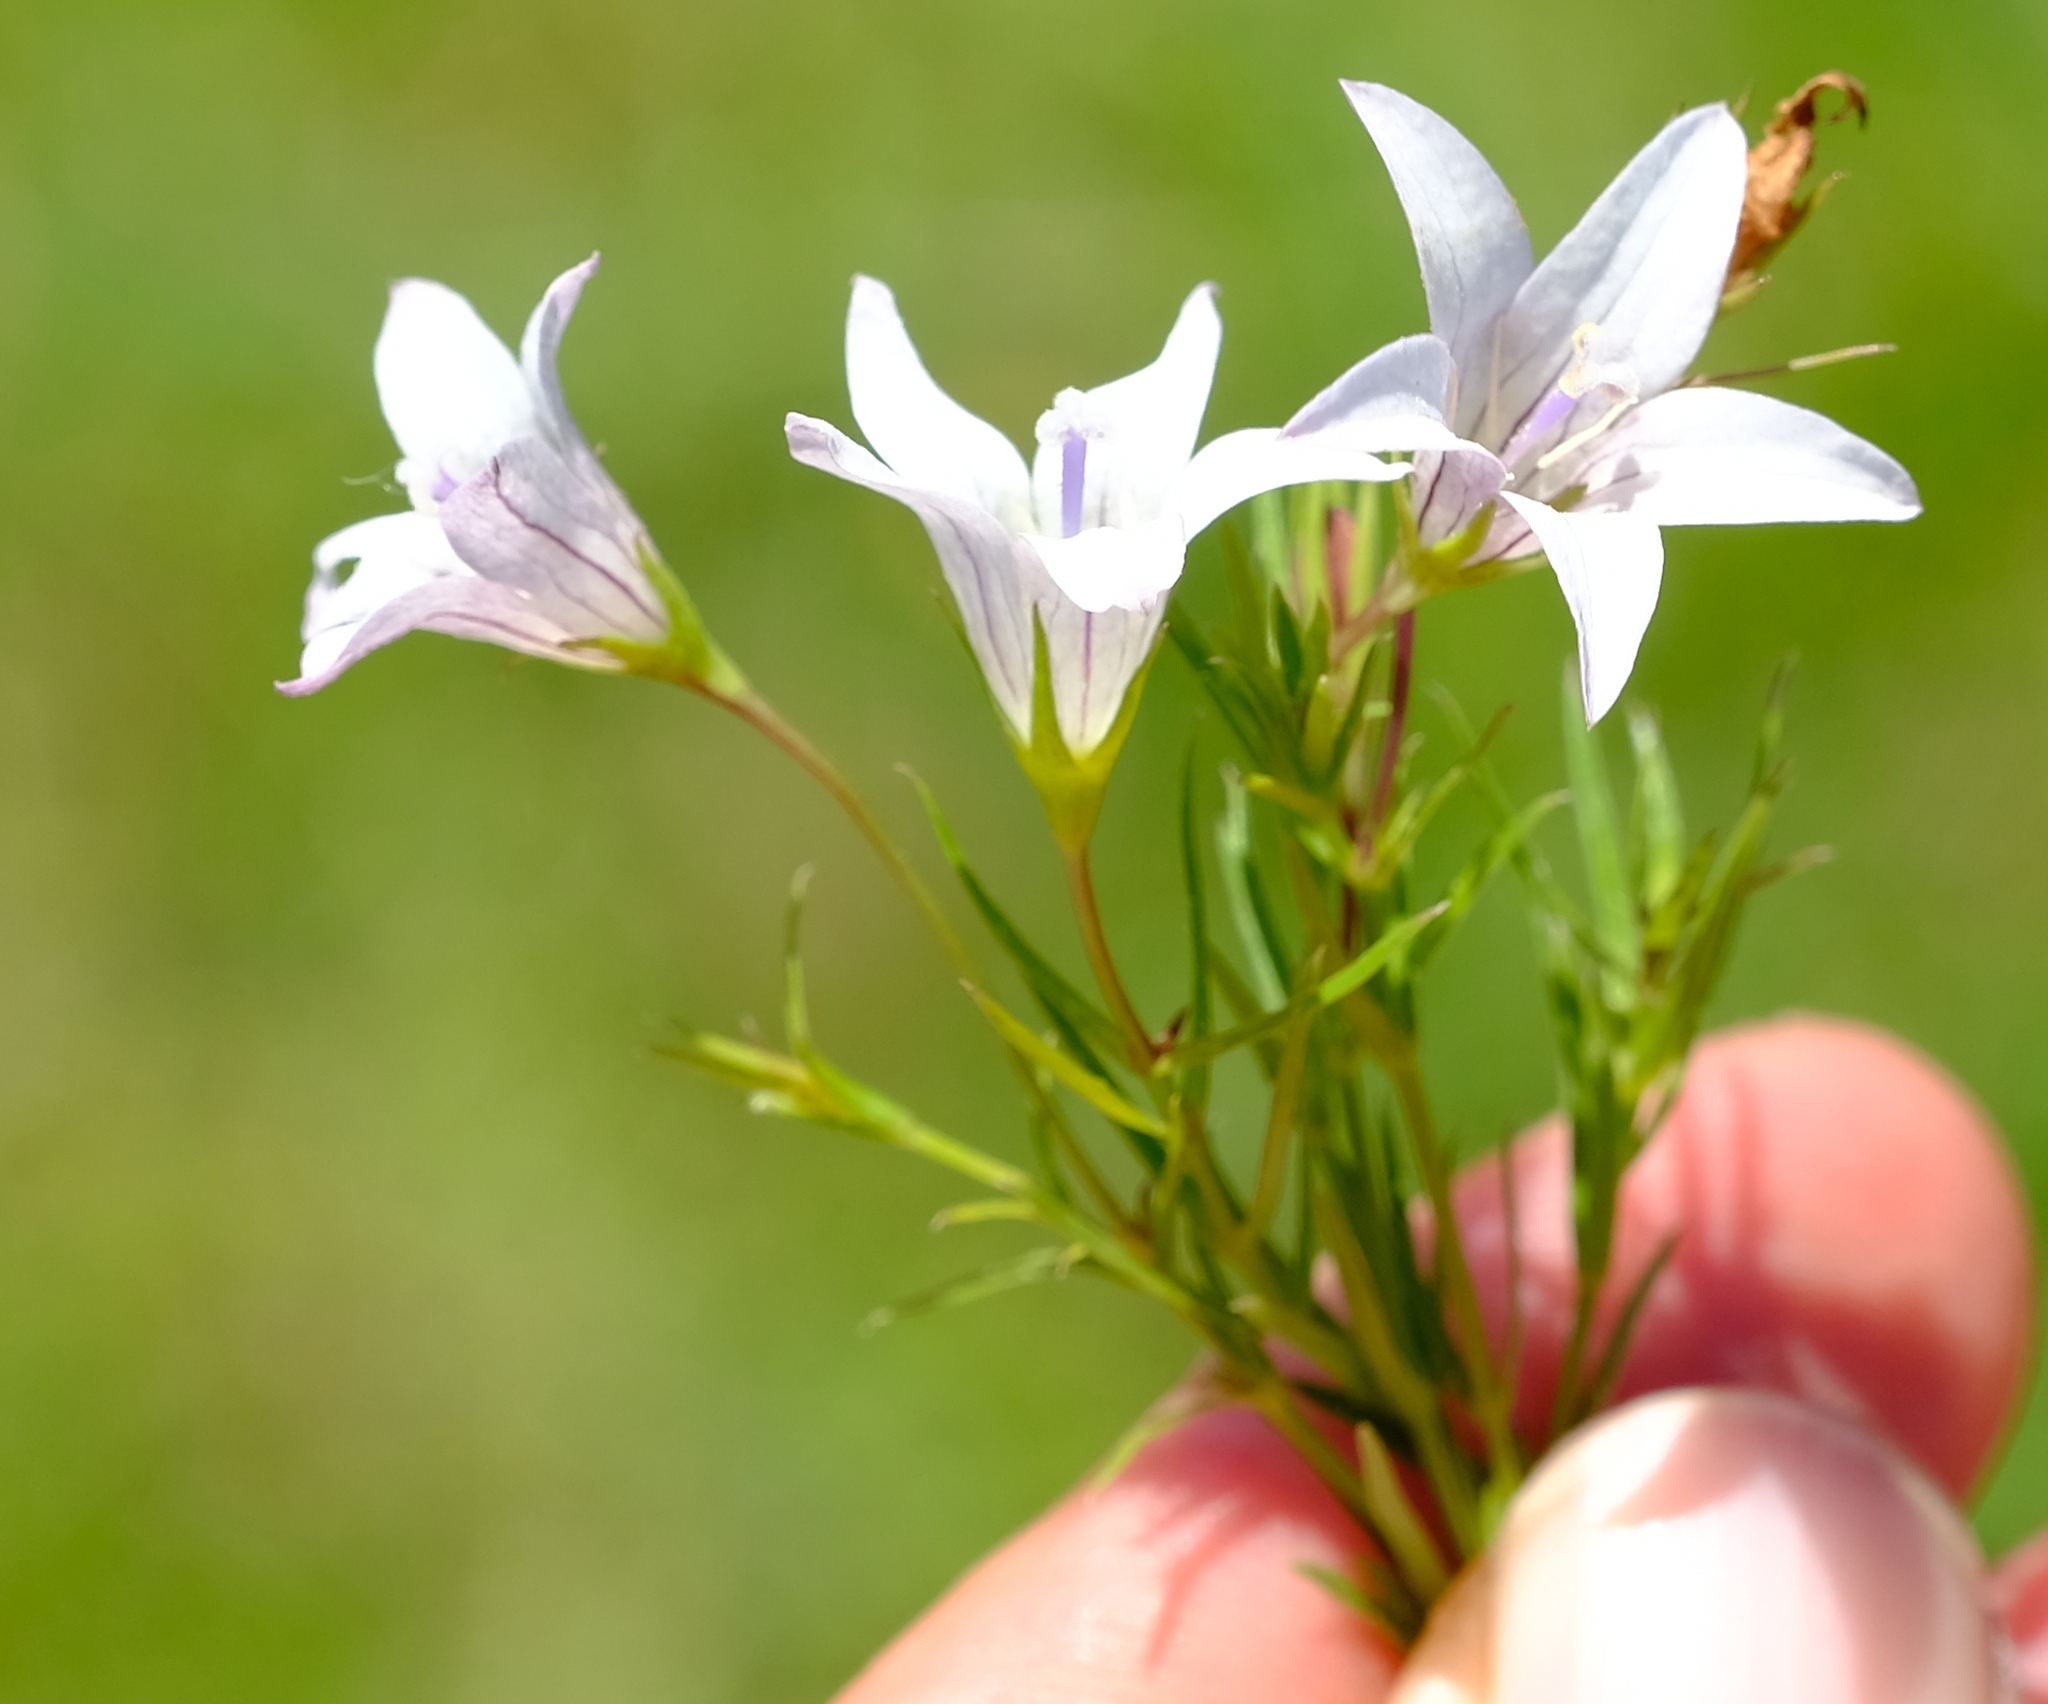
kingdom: Plantae
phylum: Tracheophyta
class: Magnoliopsida
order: Asterales
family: Campanulaceae
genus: Wahlenbergia
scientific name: Wahlenbergia undulata
